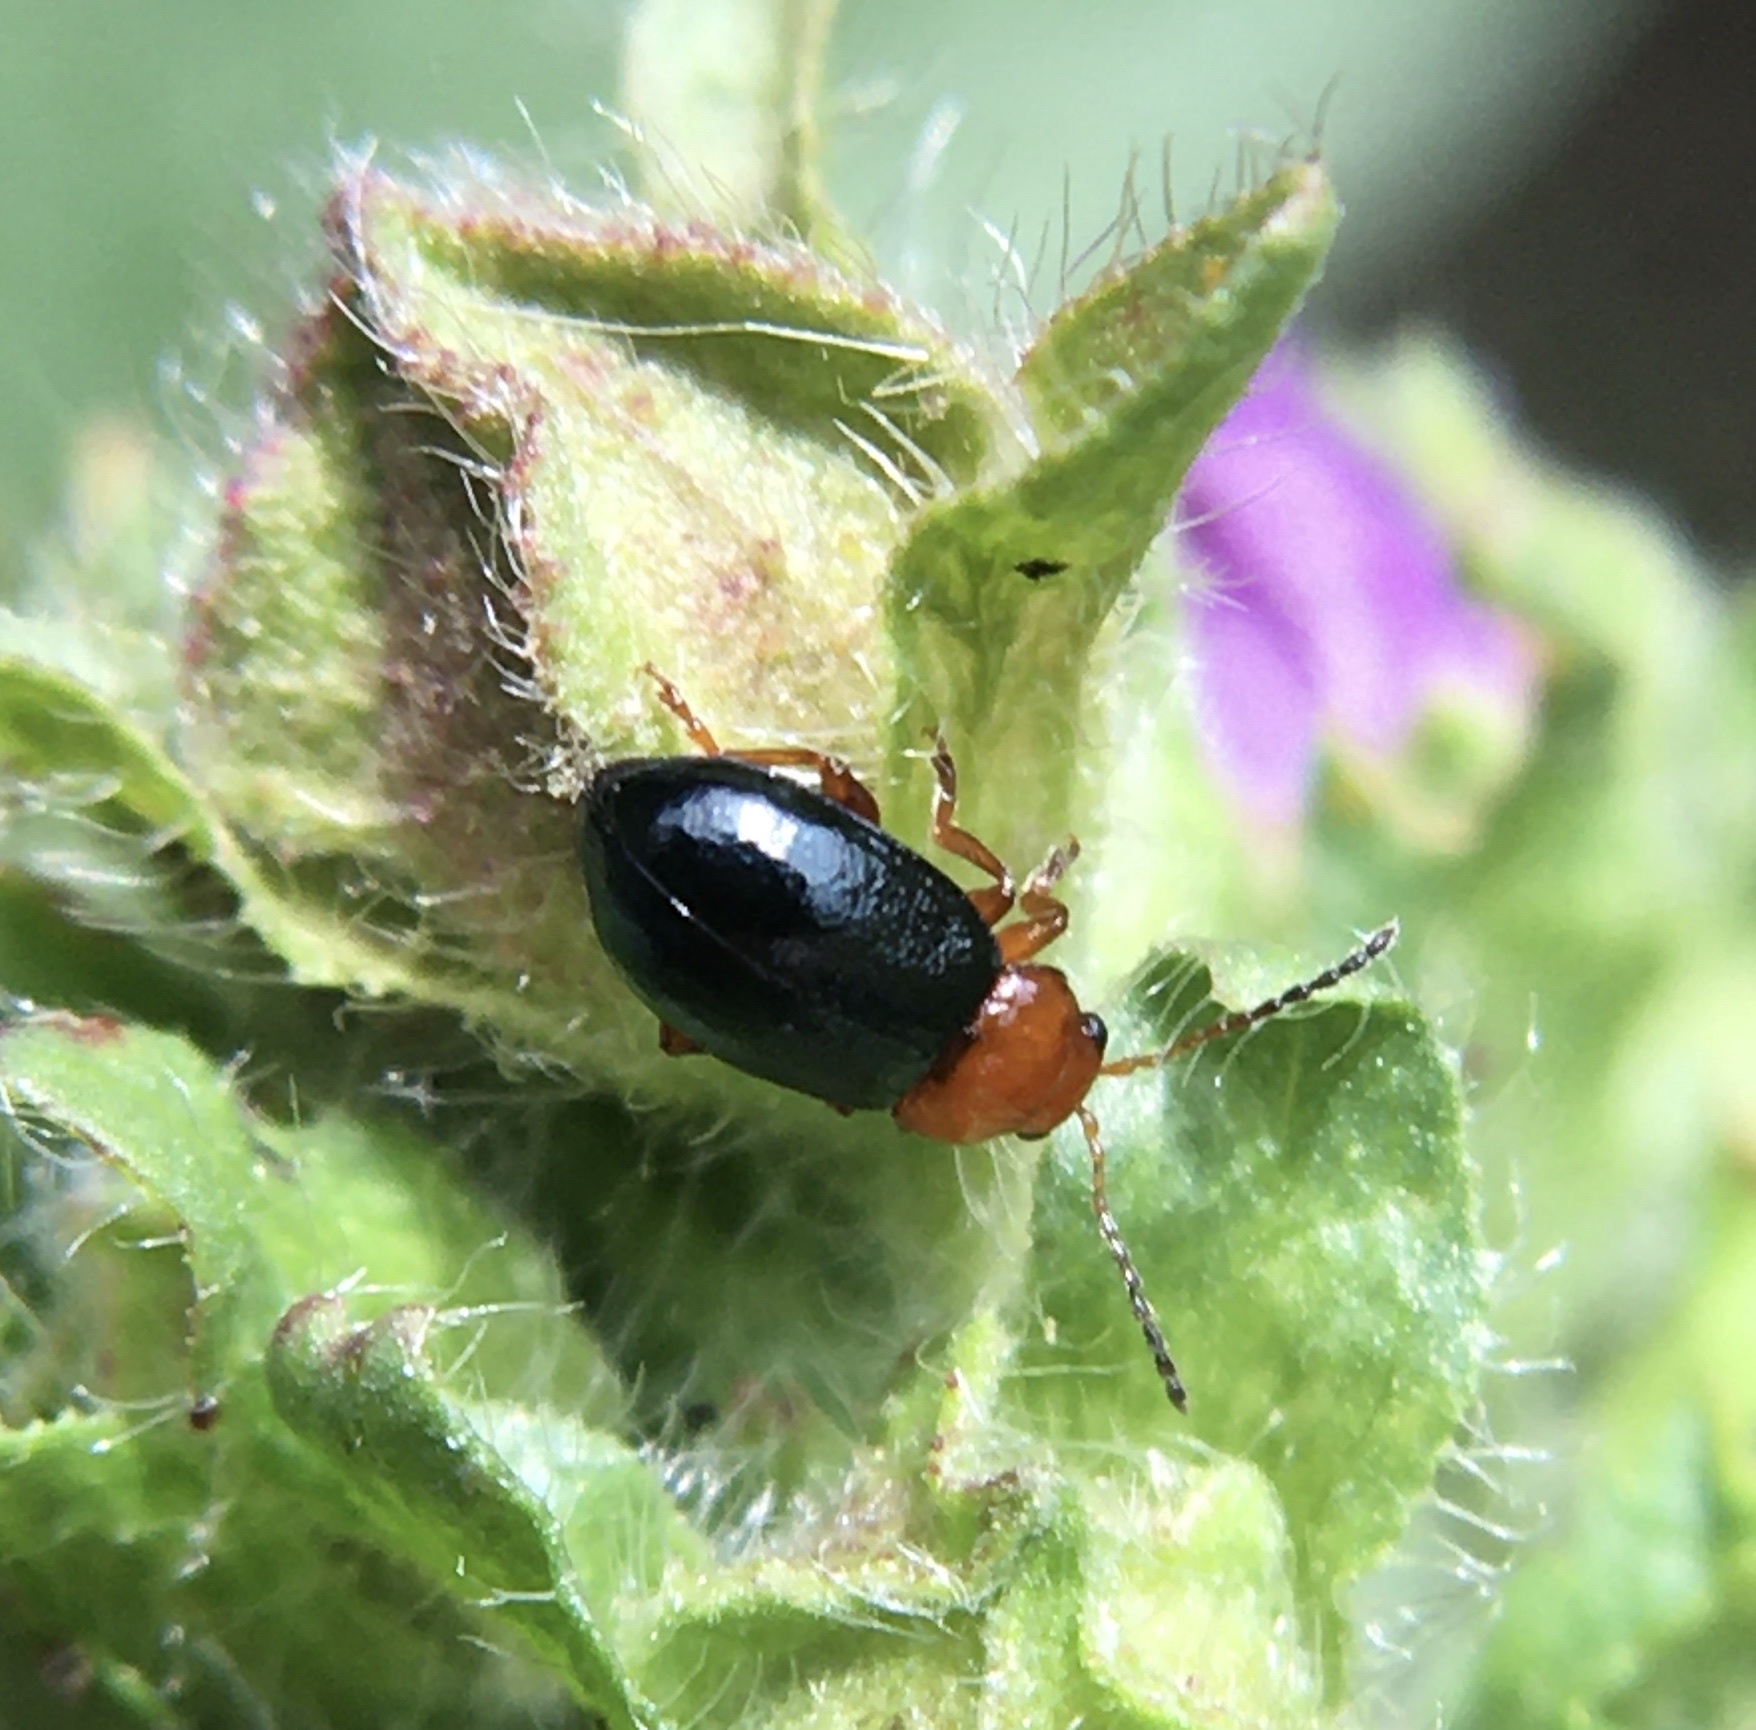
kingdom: Animalia
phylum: Arthropoda
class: Insecta
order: Coleoptera
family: Chrysomelidae
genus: Podagrica
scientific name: Podagrica fuscicornis
